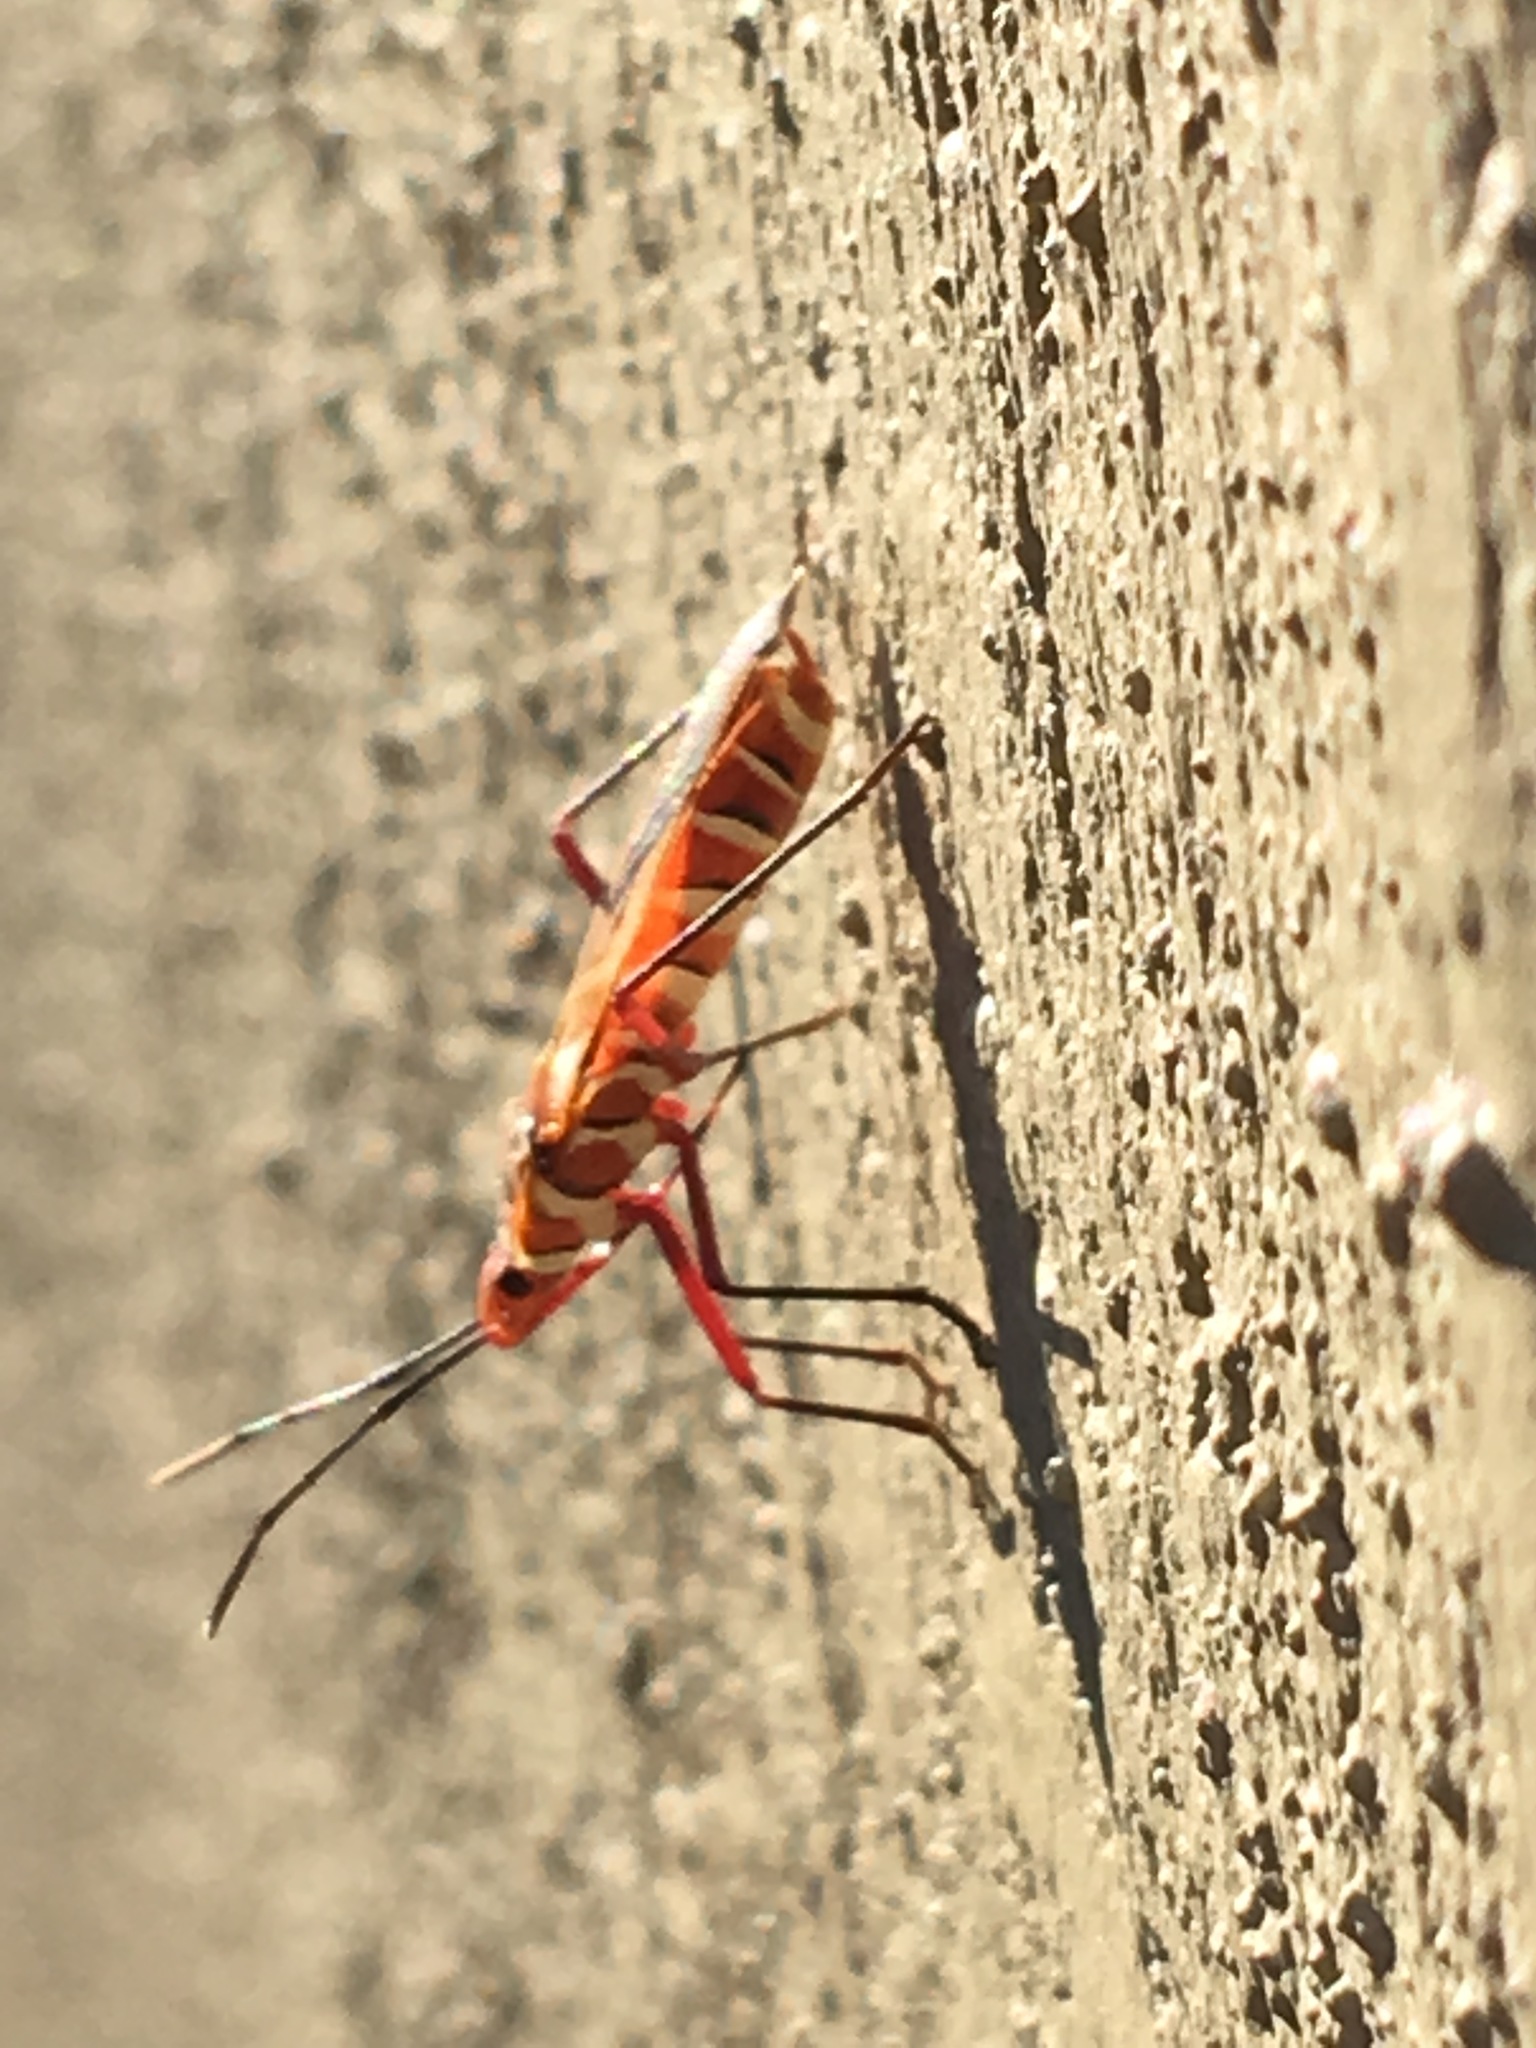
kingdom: Animalia
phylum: Arthropoda
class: Insecta
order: Hemiptera
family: Pyrrhocoridae
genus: Dysdercus
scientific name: Dysdercus
